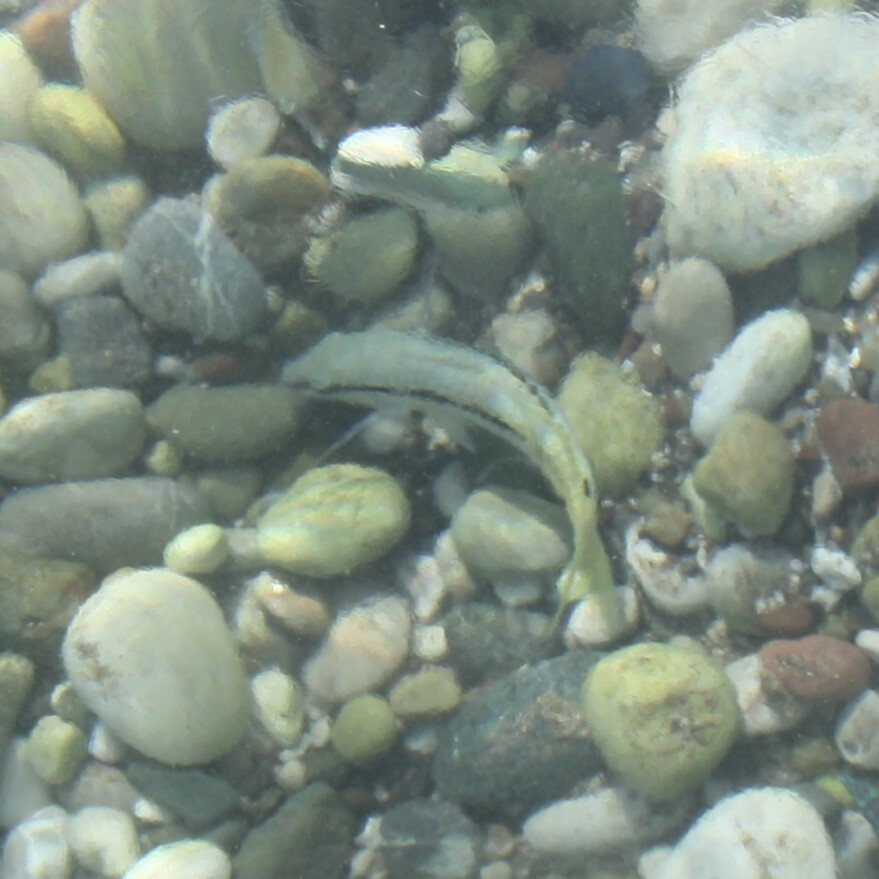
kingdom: Animalia
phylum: Chordata
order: Perciformes
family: Mullidae
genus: Parupeneus
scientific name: Parupeneus forsskali
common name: Red sea goatfish
